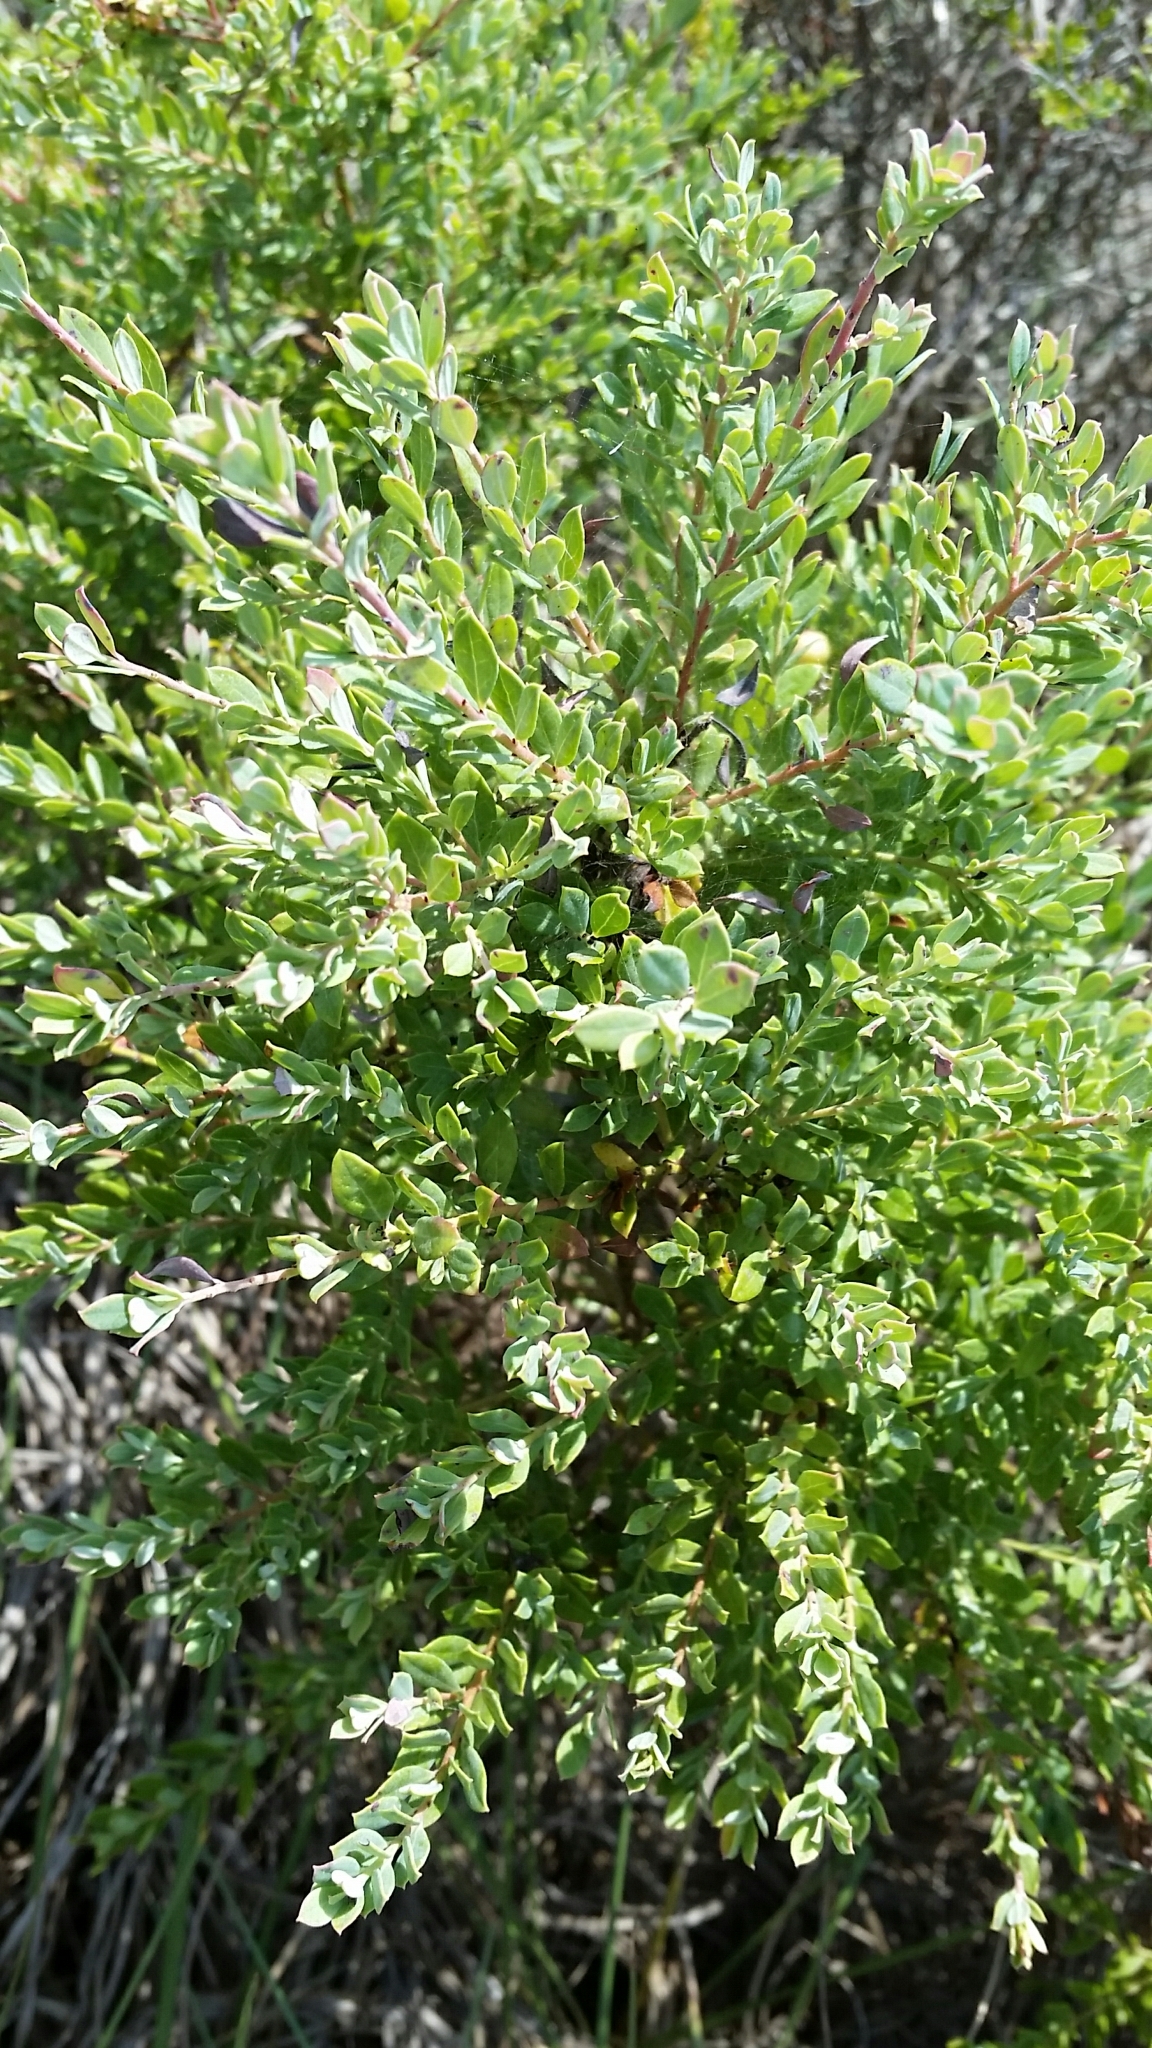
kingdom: Plantae
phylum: Tracheophyta
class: Magnoliopsida
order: Ericales
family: Ericaceae
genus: Vaccinium
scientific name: Vaccinium darrowii
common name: Darrow's blueberry
